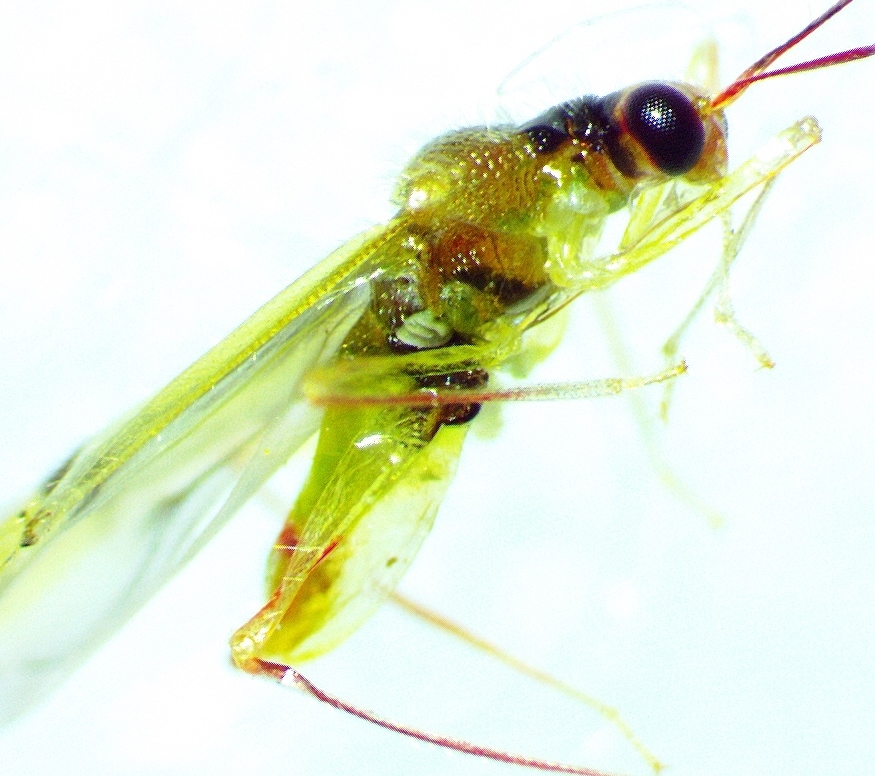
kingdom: Animalia
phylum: Arthropoda
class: Insecta
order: Hemiptera
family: Miridae
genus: Hyaliodes
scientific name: Hyaliodes vitripennis
